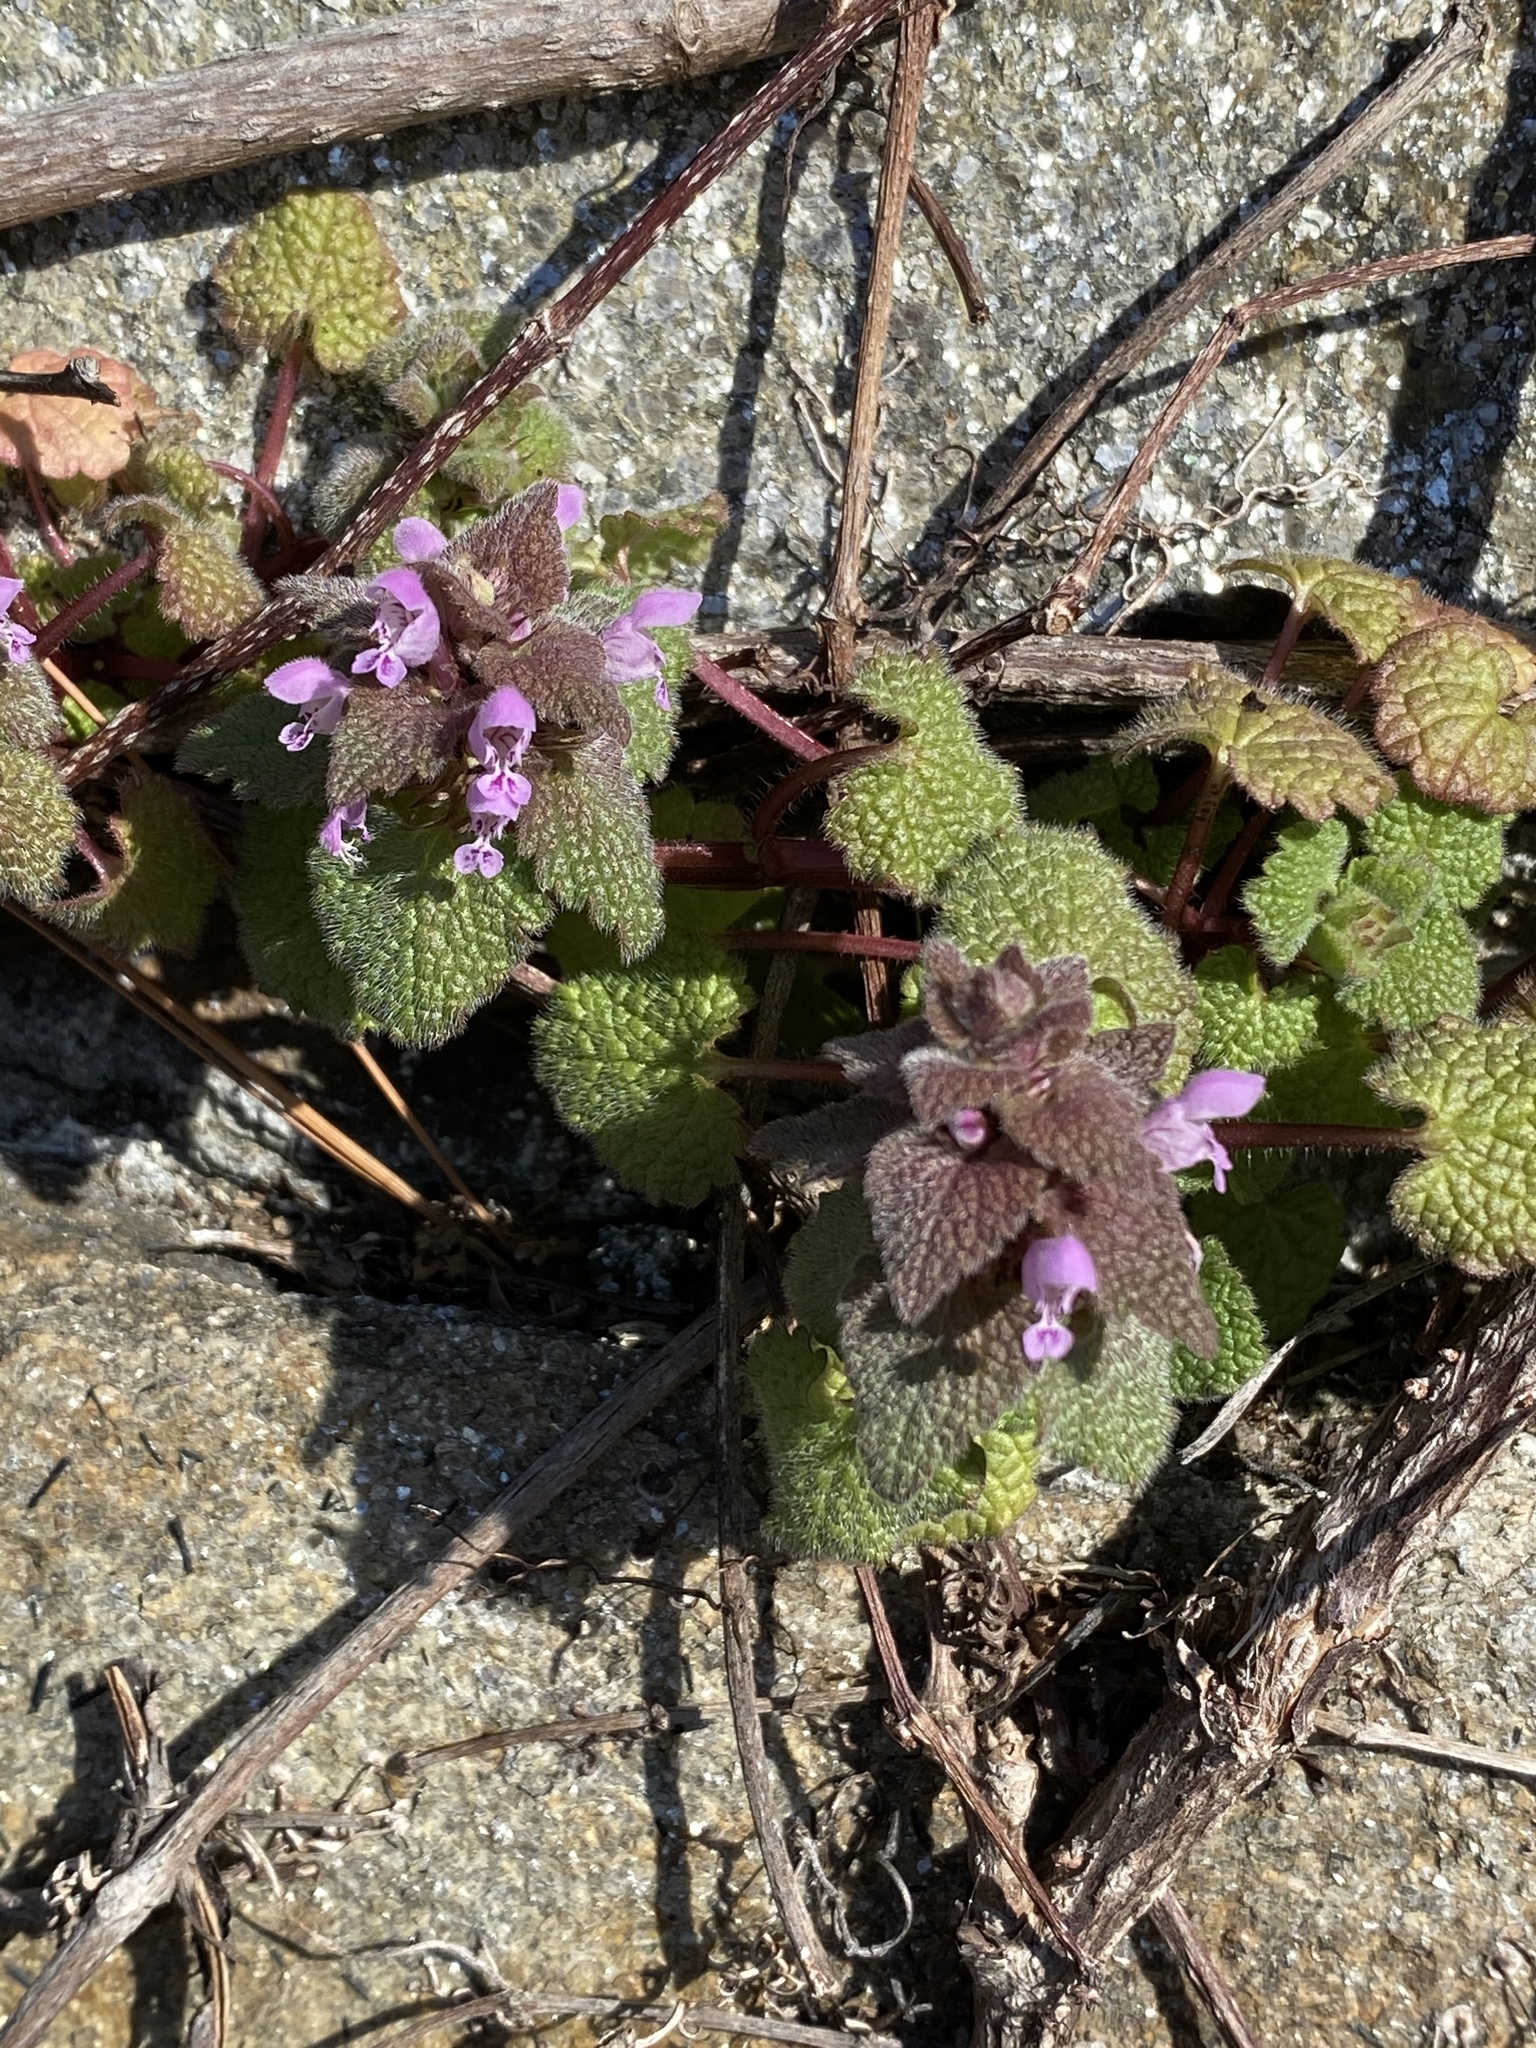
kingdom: Plantae
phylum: Tracheophyta
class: Magnoliopsida
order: Lamiales
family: Lamiaceae
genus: Lamium
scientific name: Lamium purpureum
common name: Red dead-nettle
